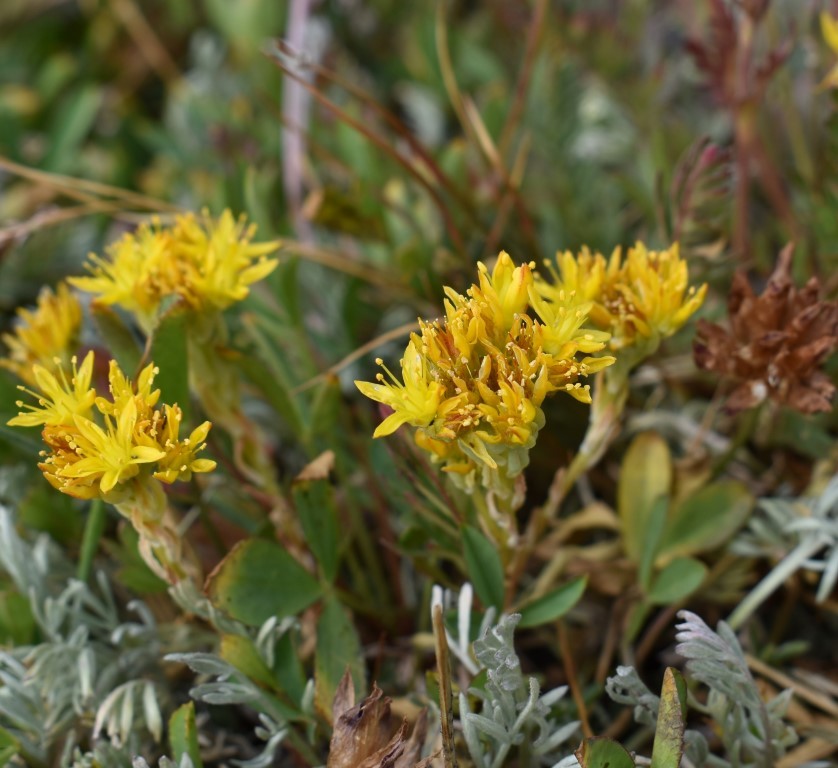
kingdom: Plantae
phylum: Tracheophyta
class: Magnoliopsida
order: Saxifragales
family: Crassulaceae
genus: Sedum
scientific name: Sedum lanceolatum
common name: Common stonecrop
